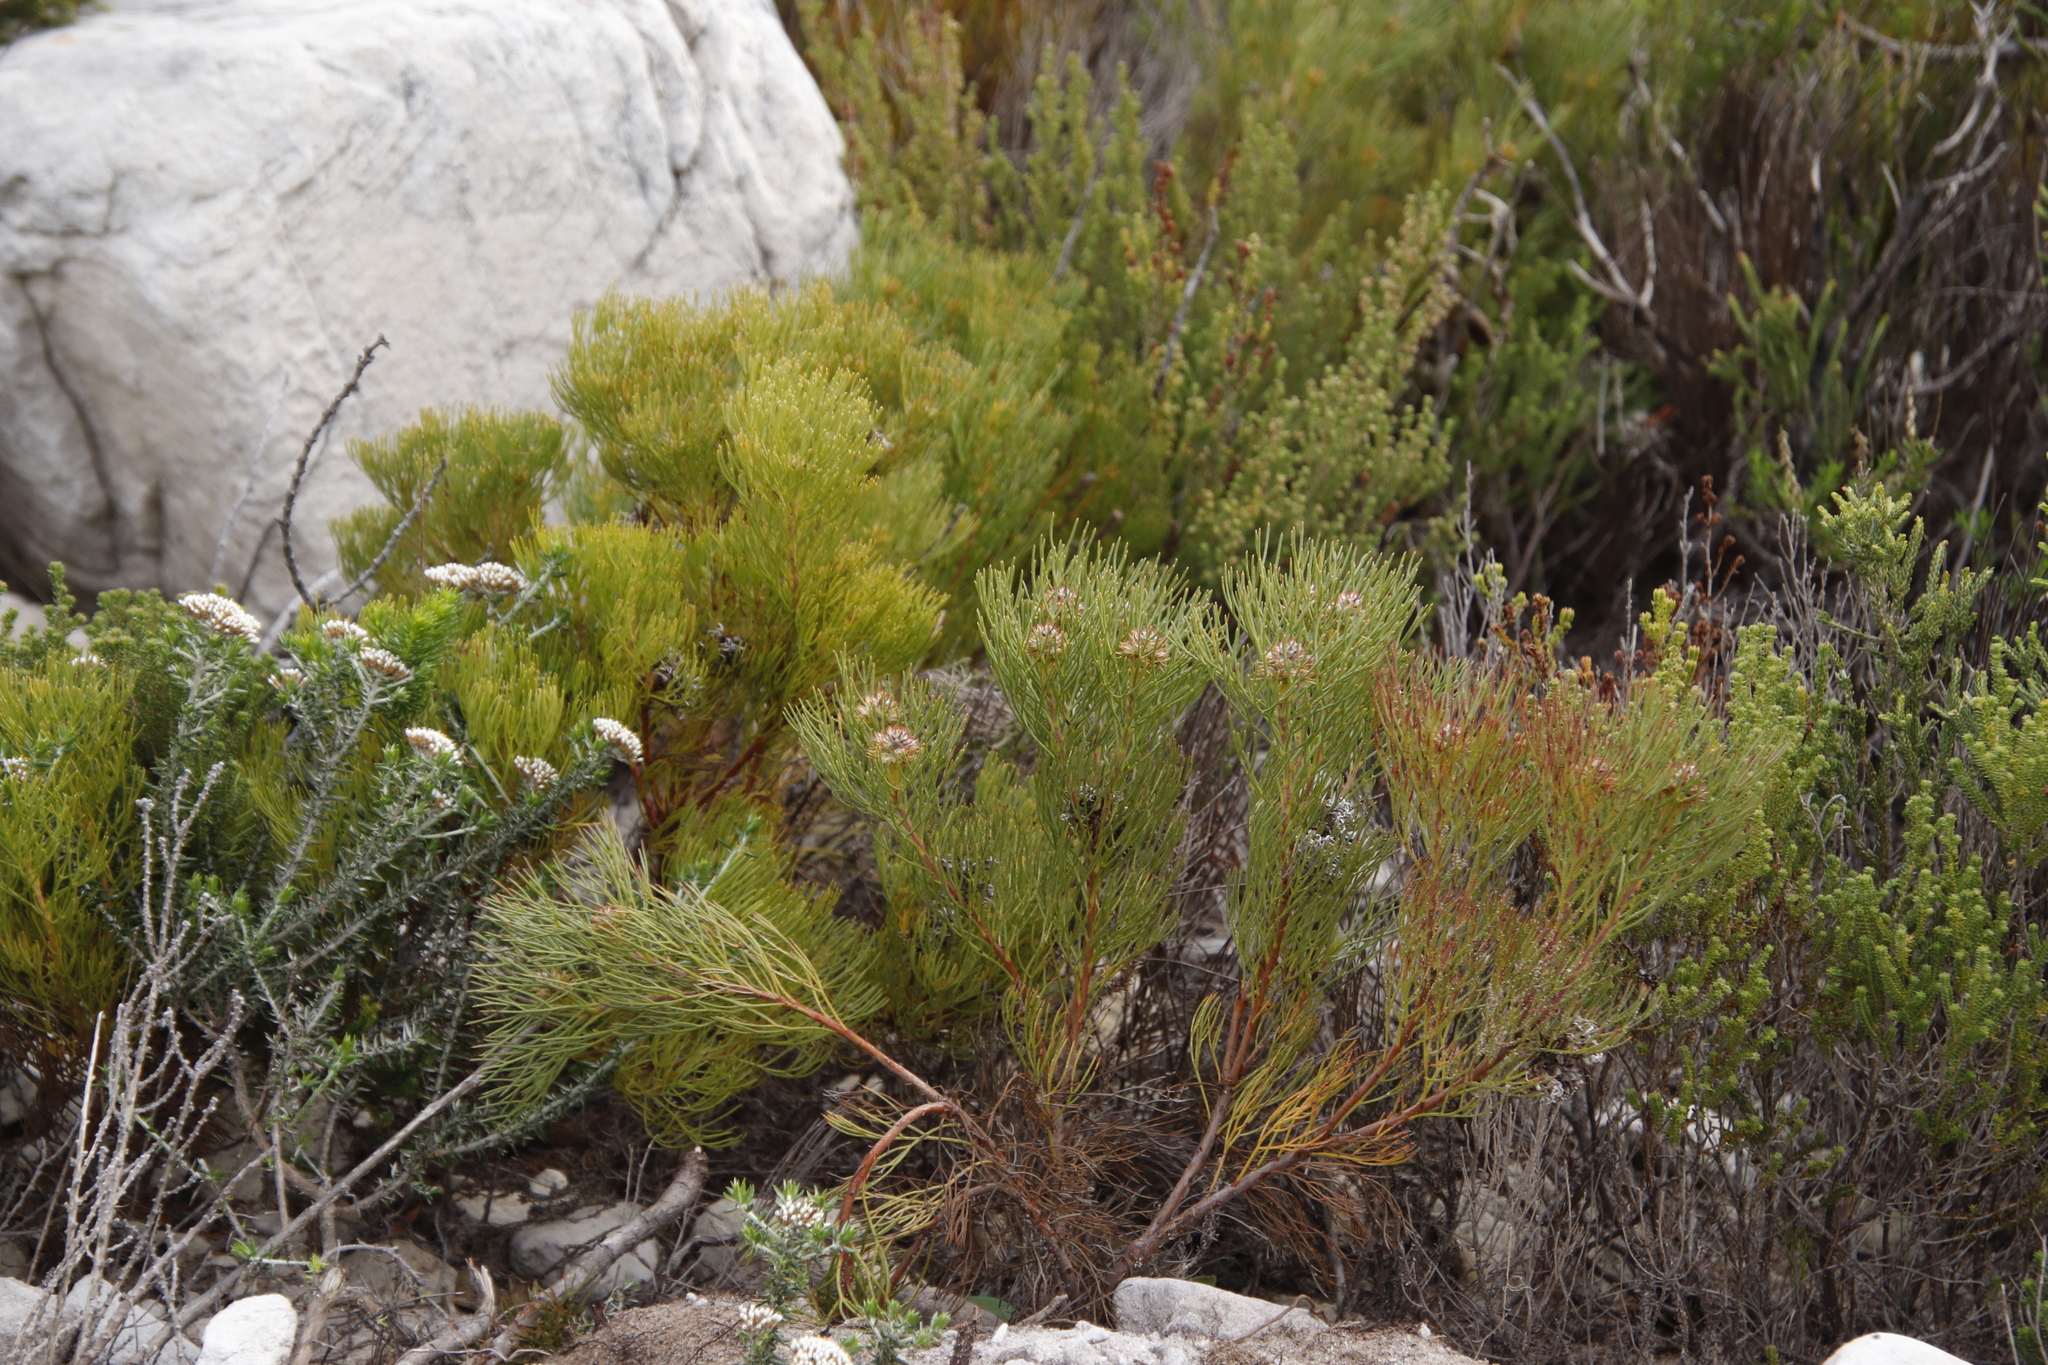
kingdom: Plantae
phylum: Tracheophyta
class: Magnoliopsida
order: Proteales
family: Proteaceae
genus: Serruria
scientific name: Serruria ascendens
